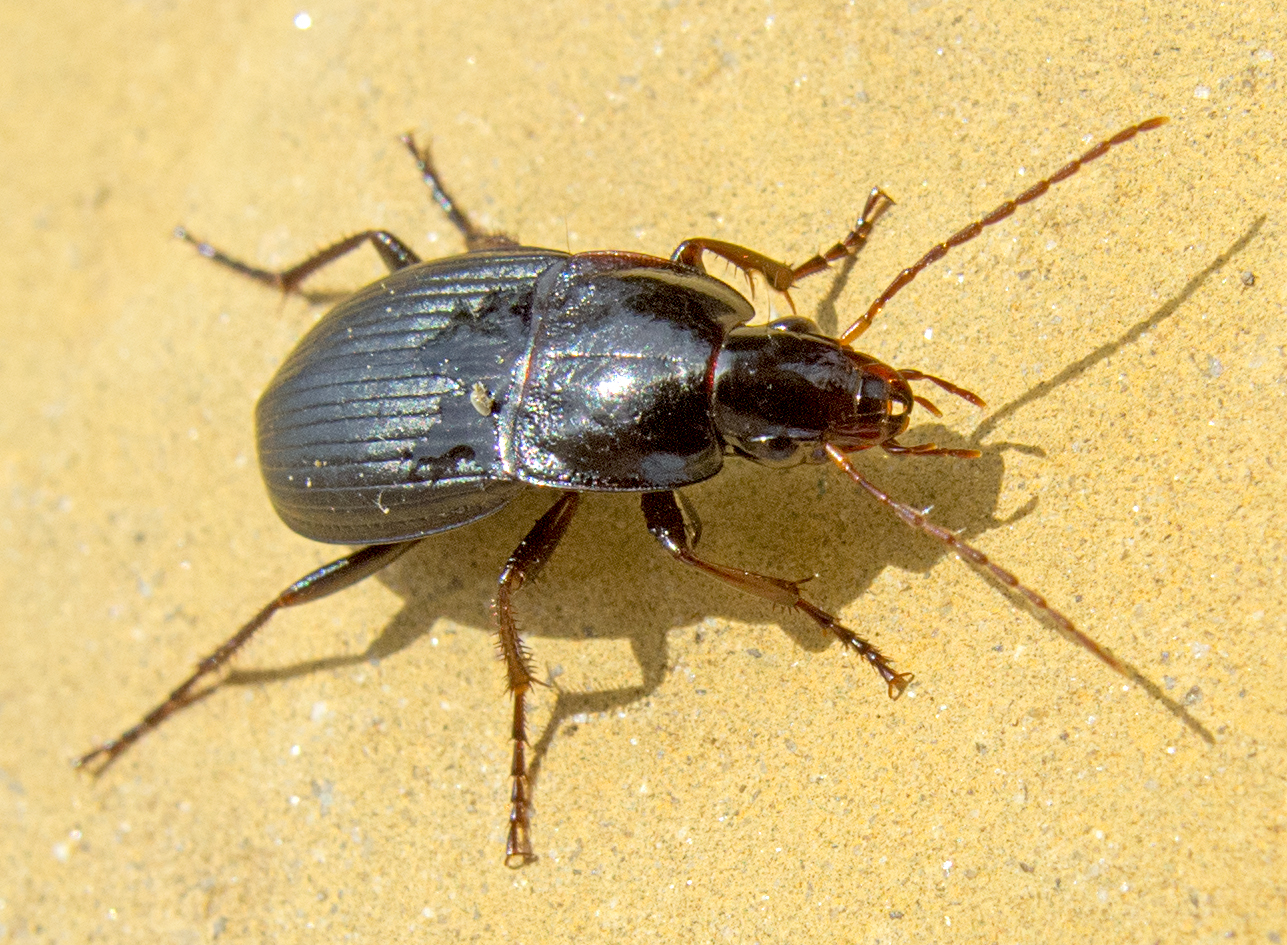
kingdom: Animalia
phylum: Arthropoda
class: Insecta
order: Coleoptera
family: Carabidae
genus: Calathus
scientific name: Calathus fuscipes
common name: Dark-footed harp ground beetle
